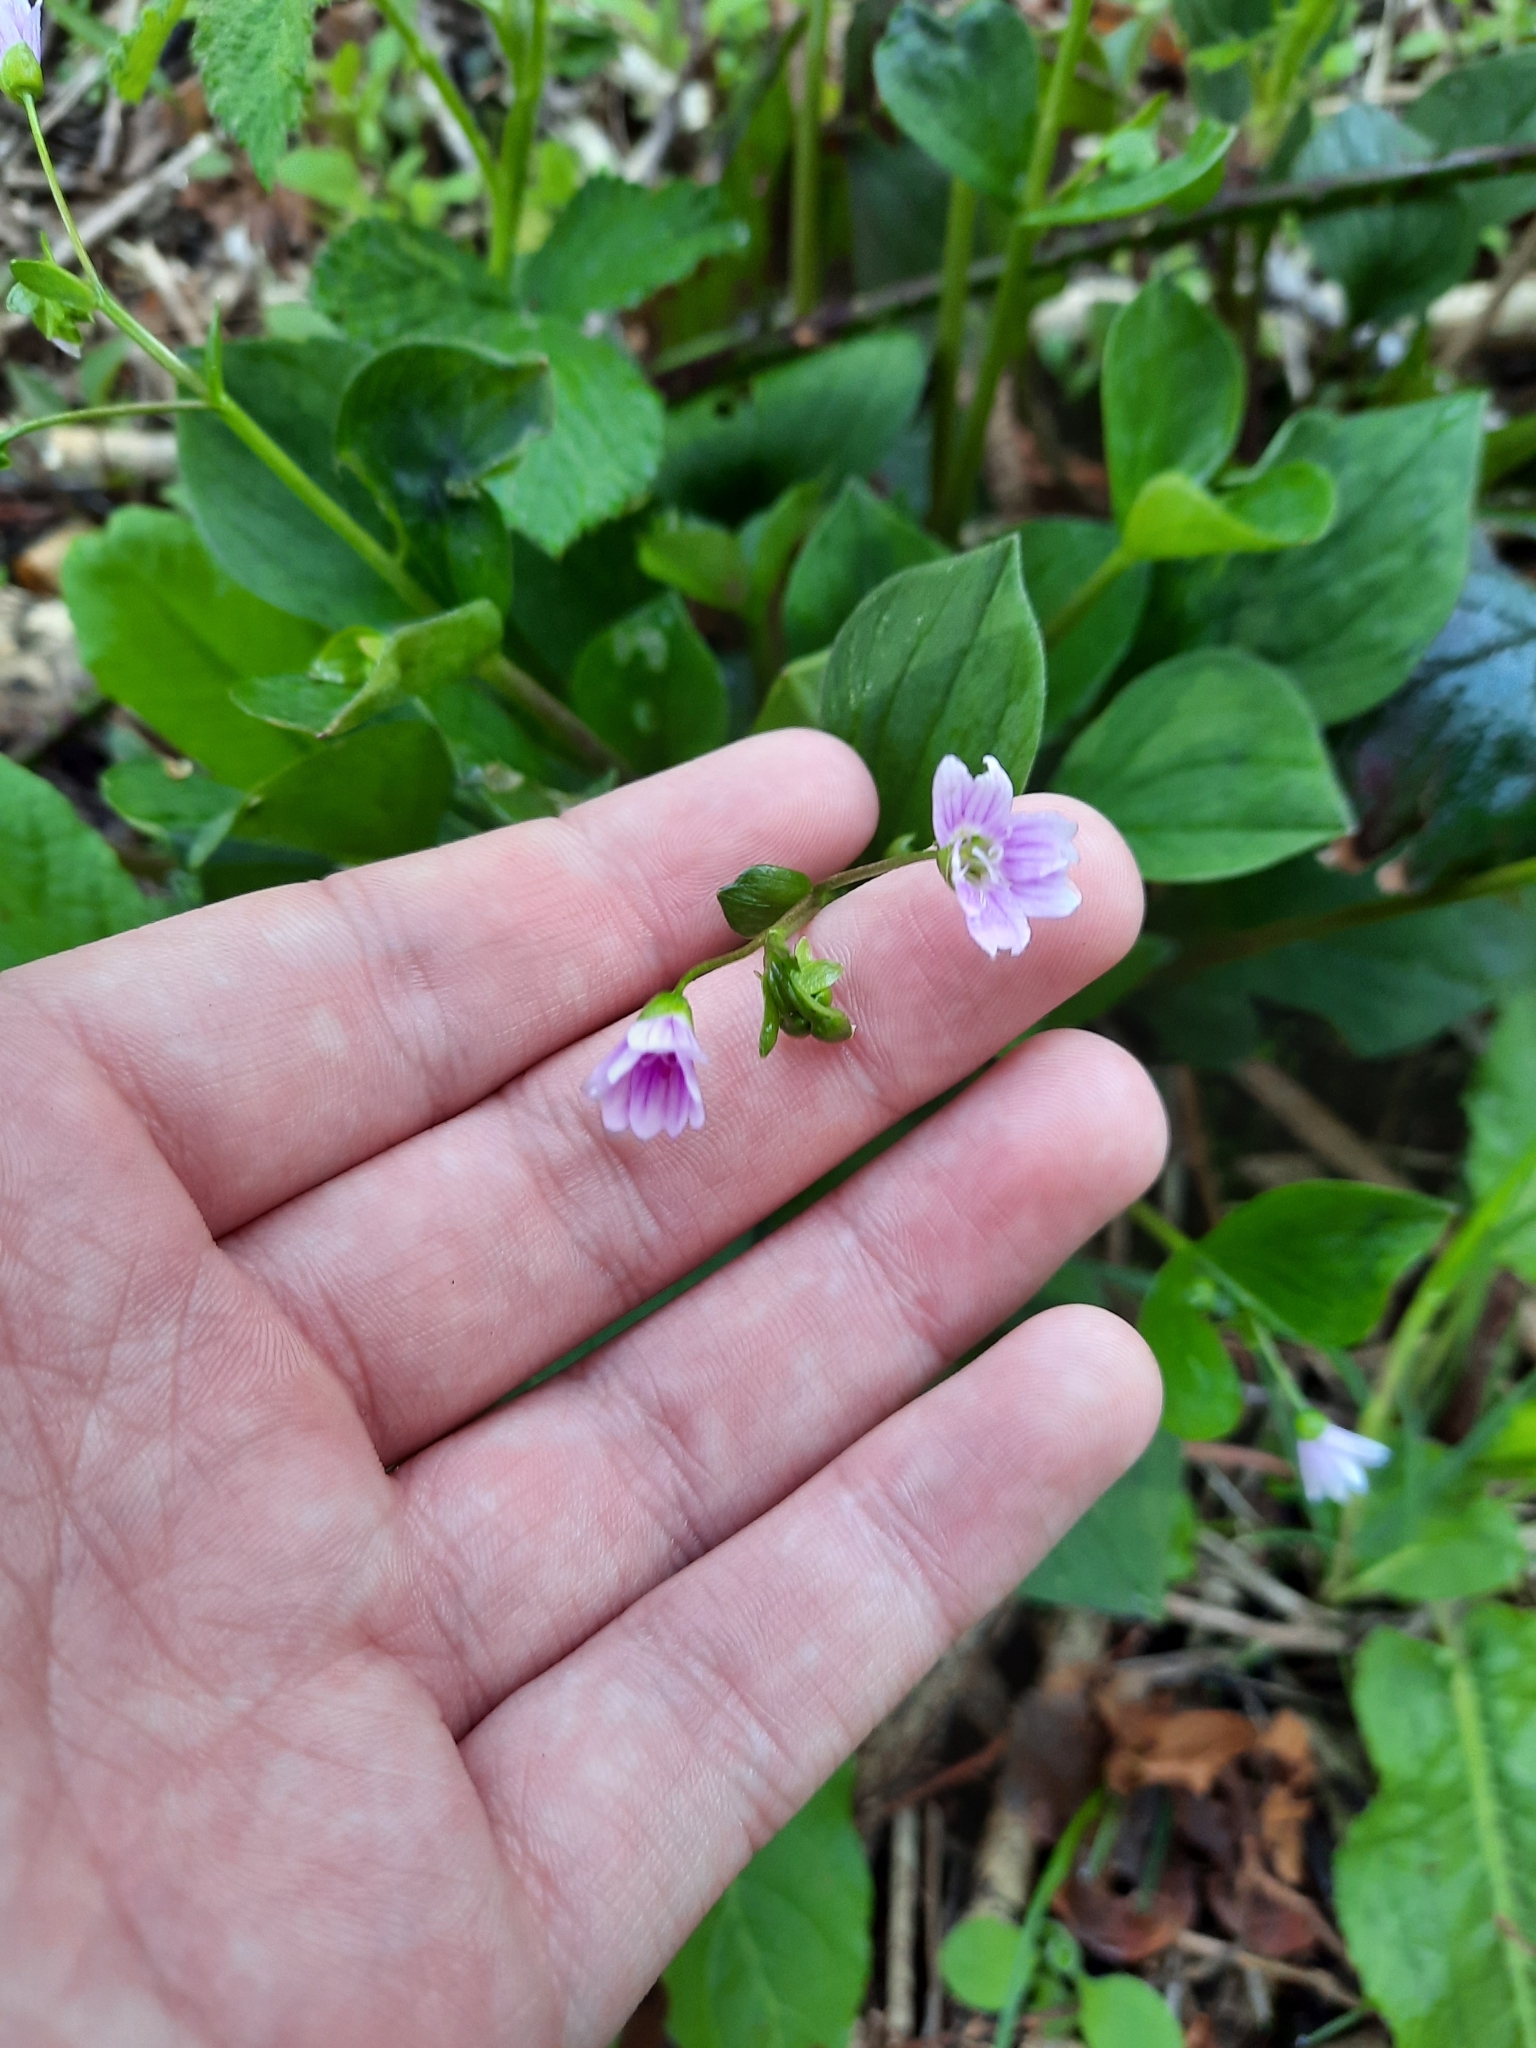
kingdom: Plantae
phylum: Tracheophyta
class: Magnoliopsida
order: Caryophyllales
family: Montiaceae
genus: Claytonia
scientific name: Claytonia sibirica
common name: Pink purslane
